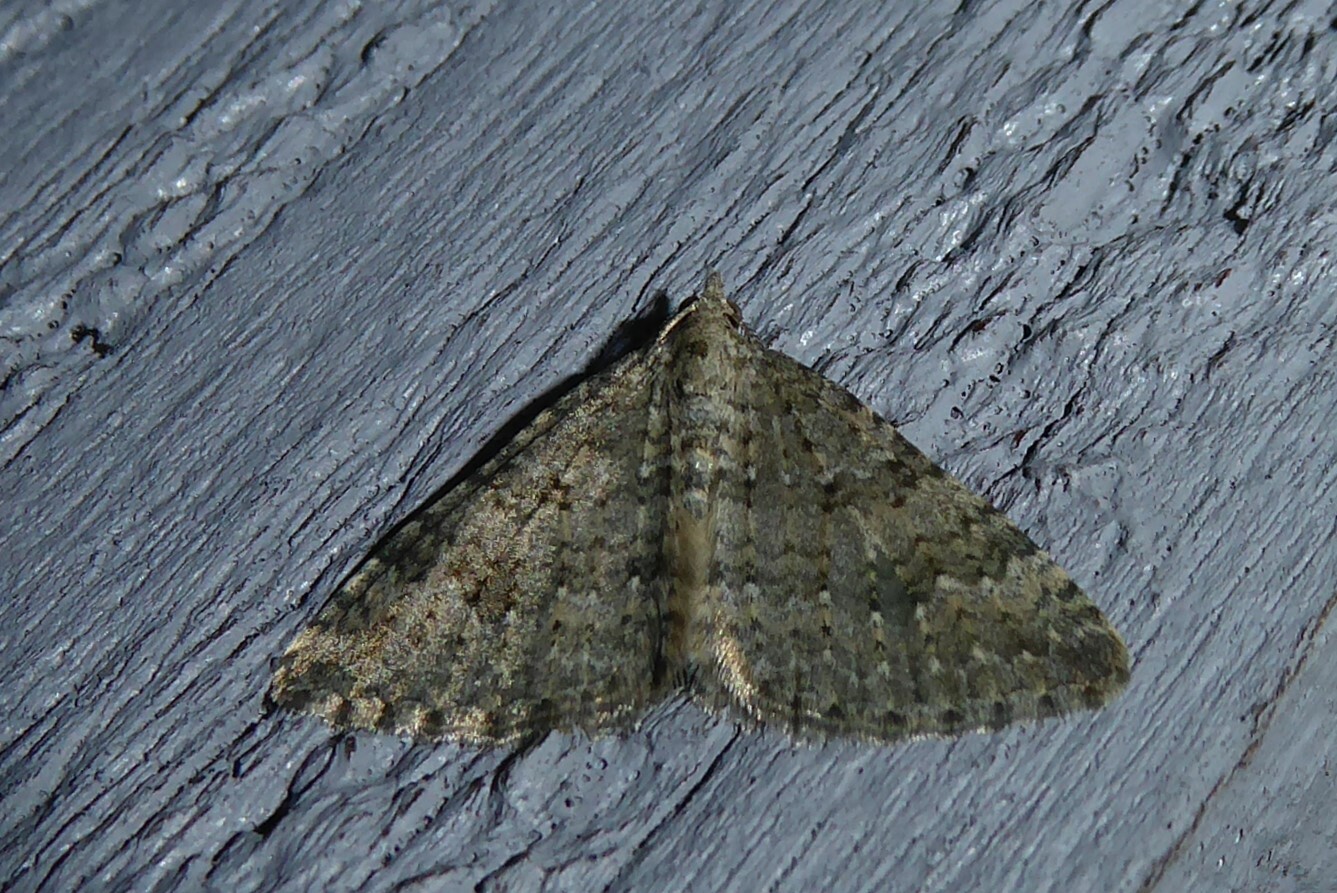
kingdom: Animalia
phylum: Arthropoda
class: Insecta
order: Lepidoptera
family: Geometridae
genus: Helastia
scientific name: Helastia corcularia
